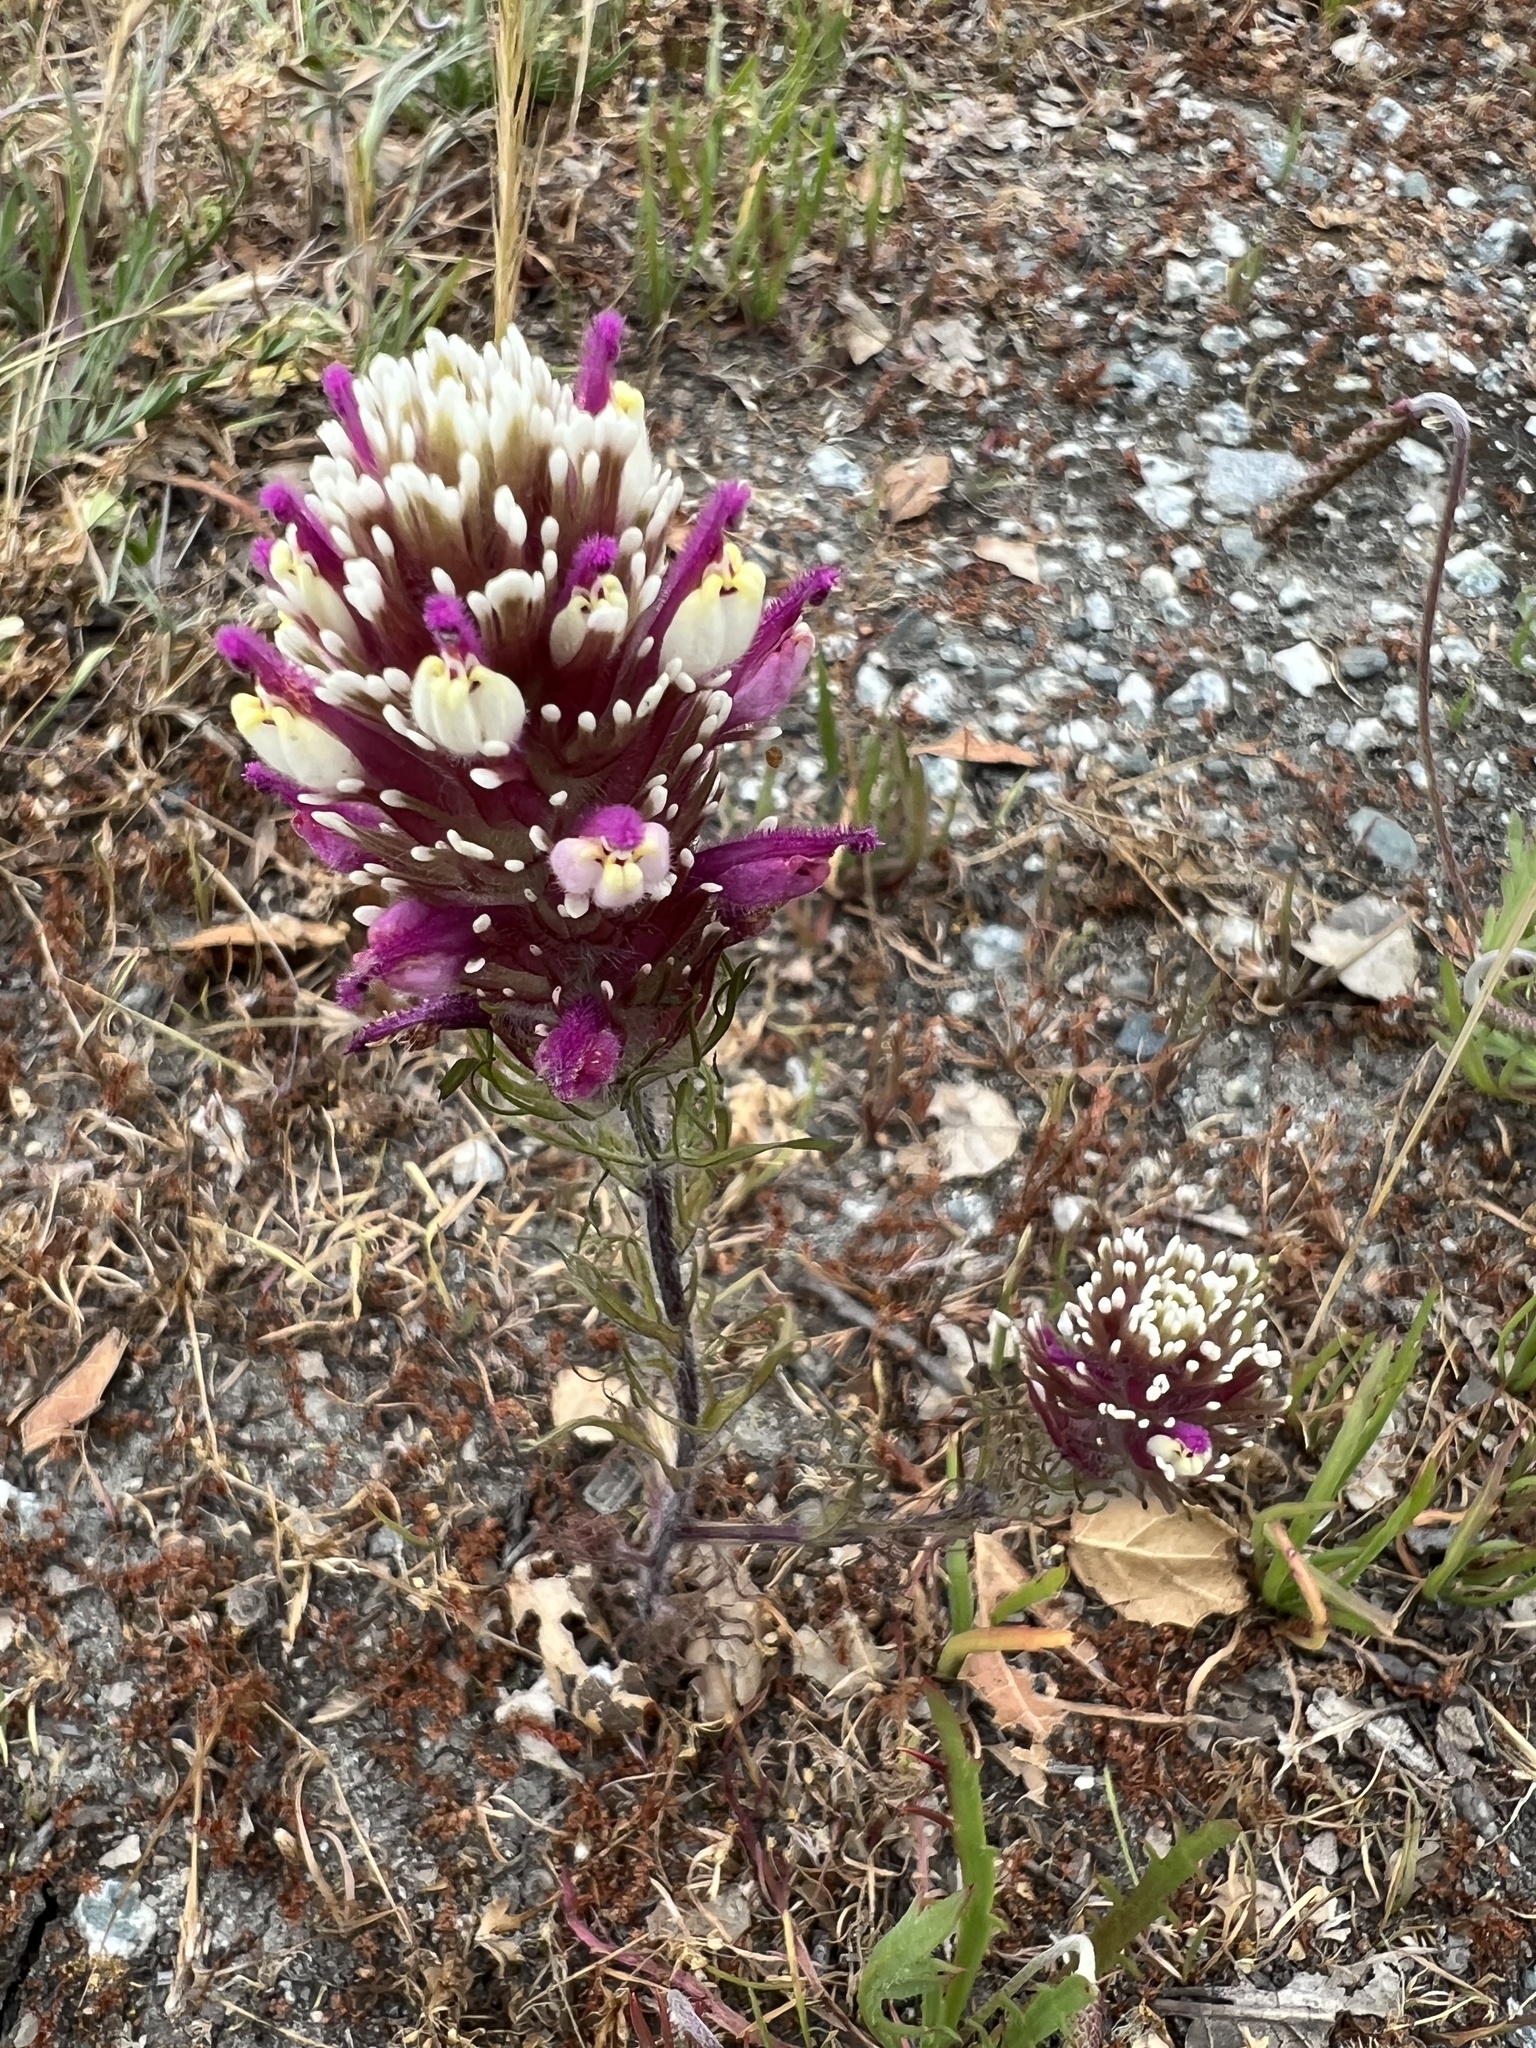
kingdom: Plantae
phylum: Tracheophyta
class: Magnoliopsida
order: Lamiales
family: Orobanchaceae
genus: Castilleja
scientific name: Castilleja exserta
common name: Purple owl-clover
